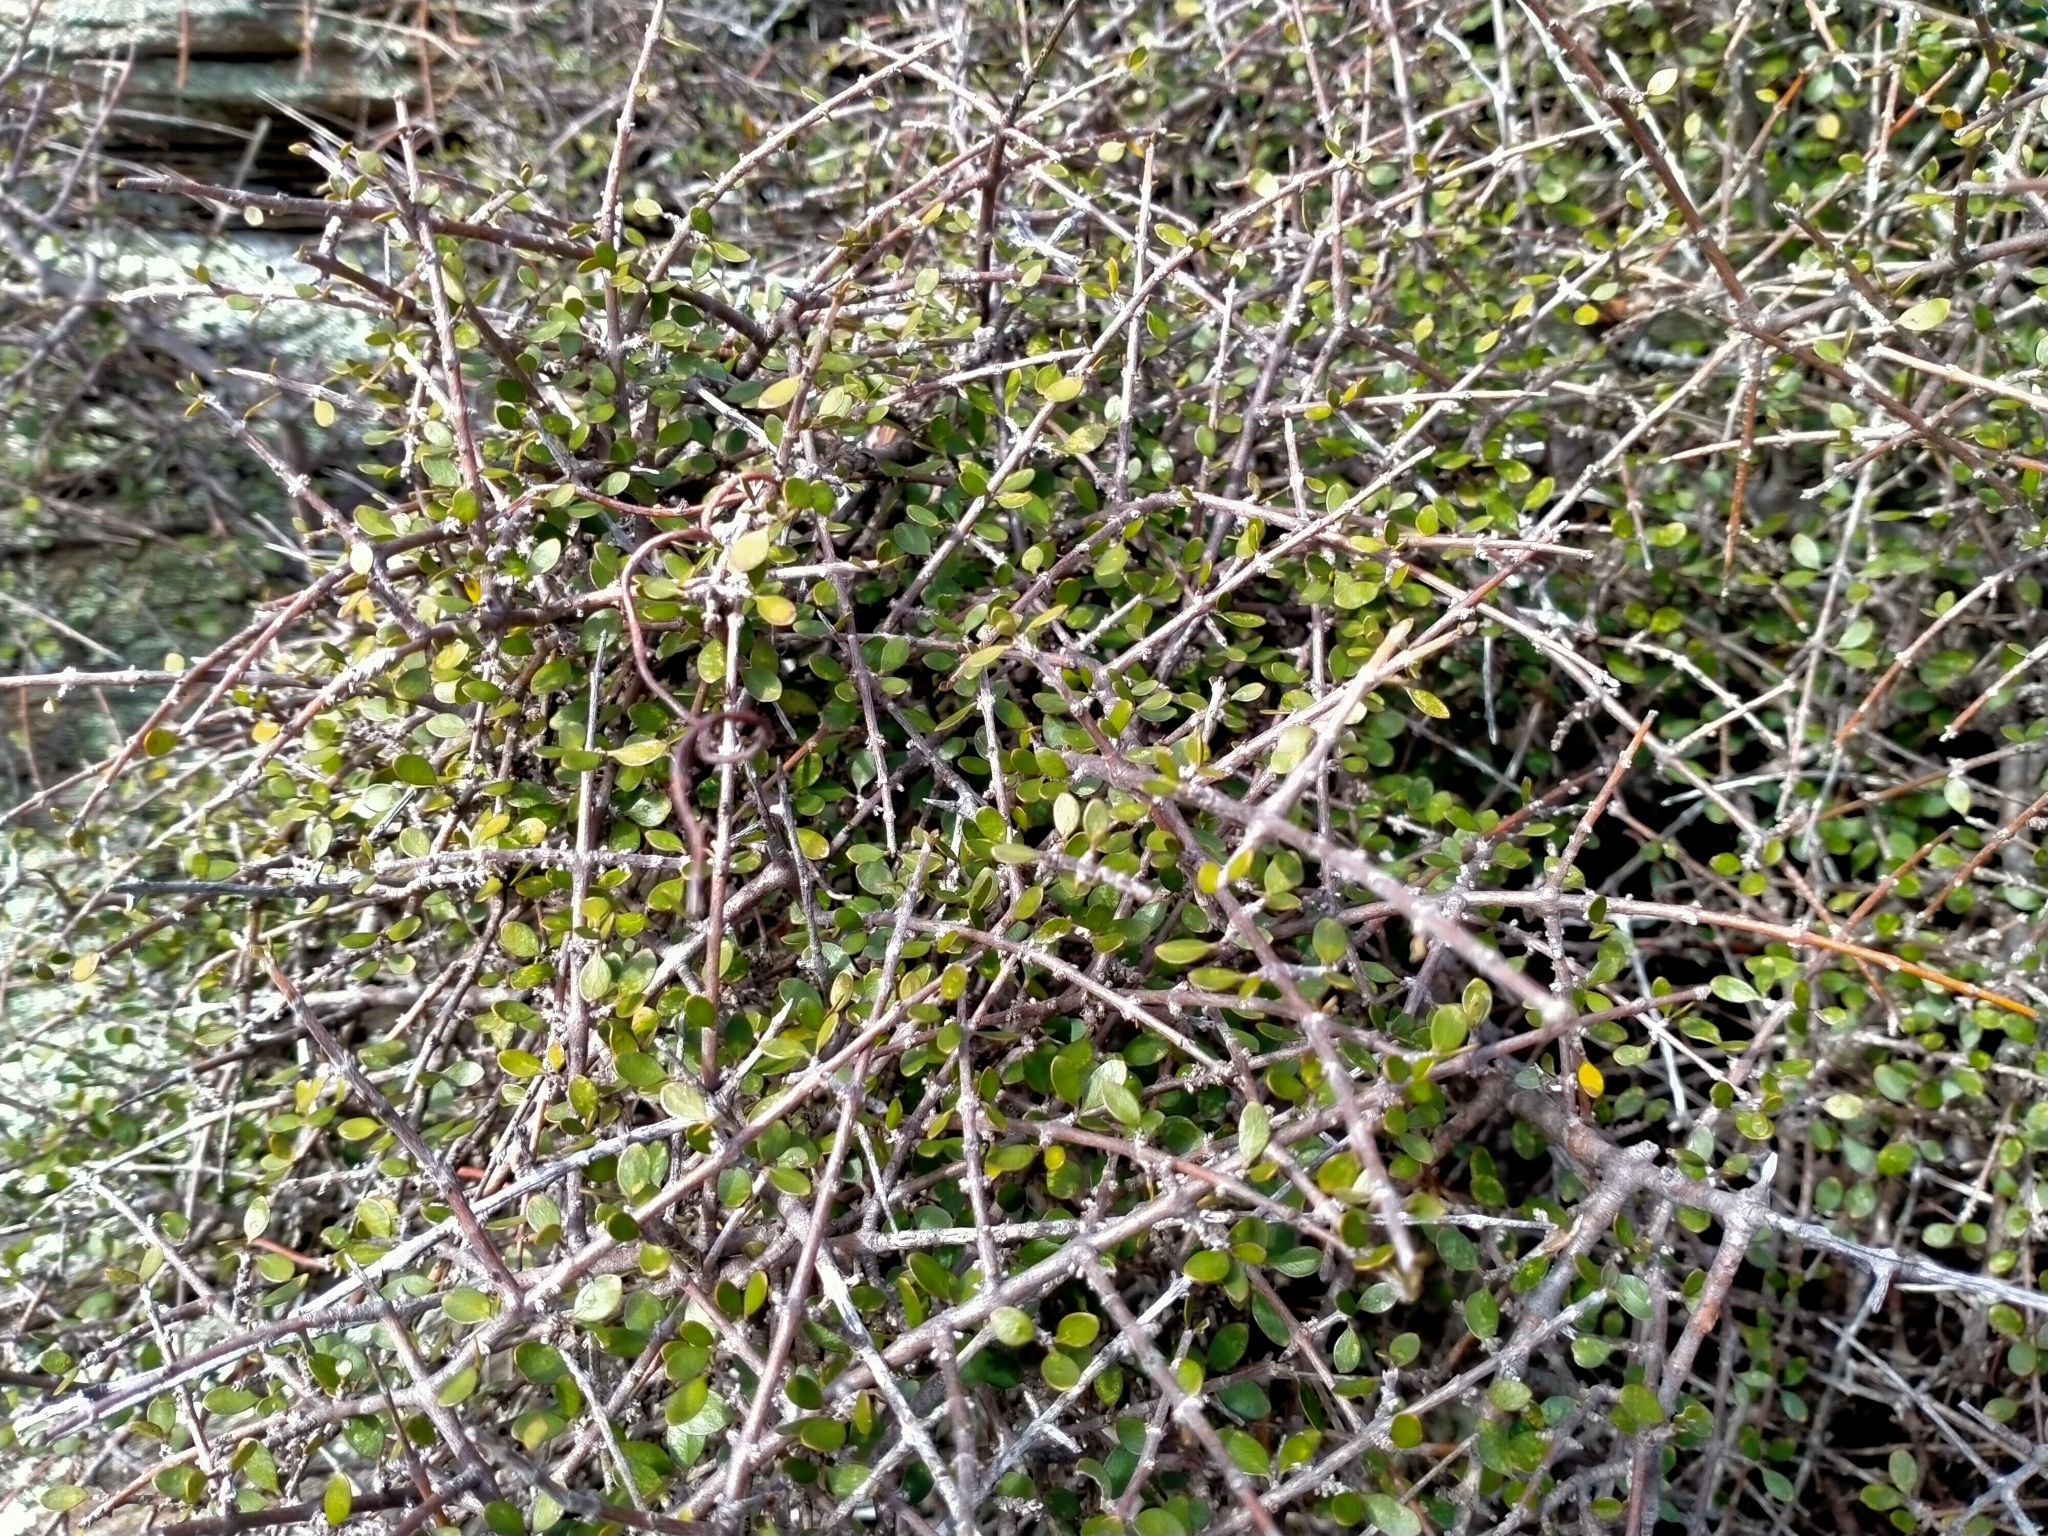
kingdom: Plantae
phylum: Tracheophyta
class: Magnoliopsida
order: Gentianales
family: Rubiaceae
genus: Coprosma
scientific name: Coprosma crassifolia
